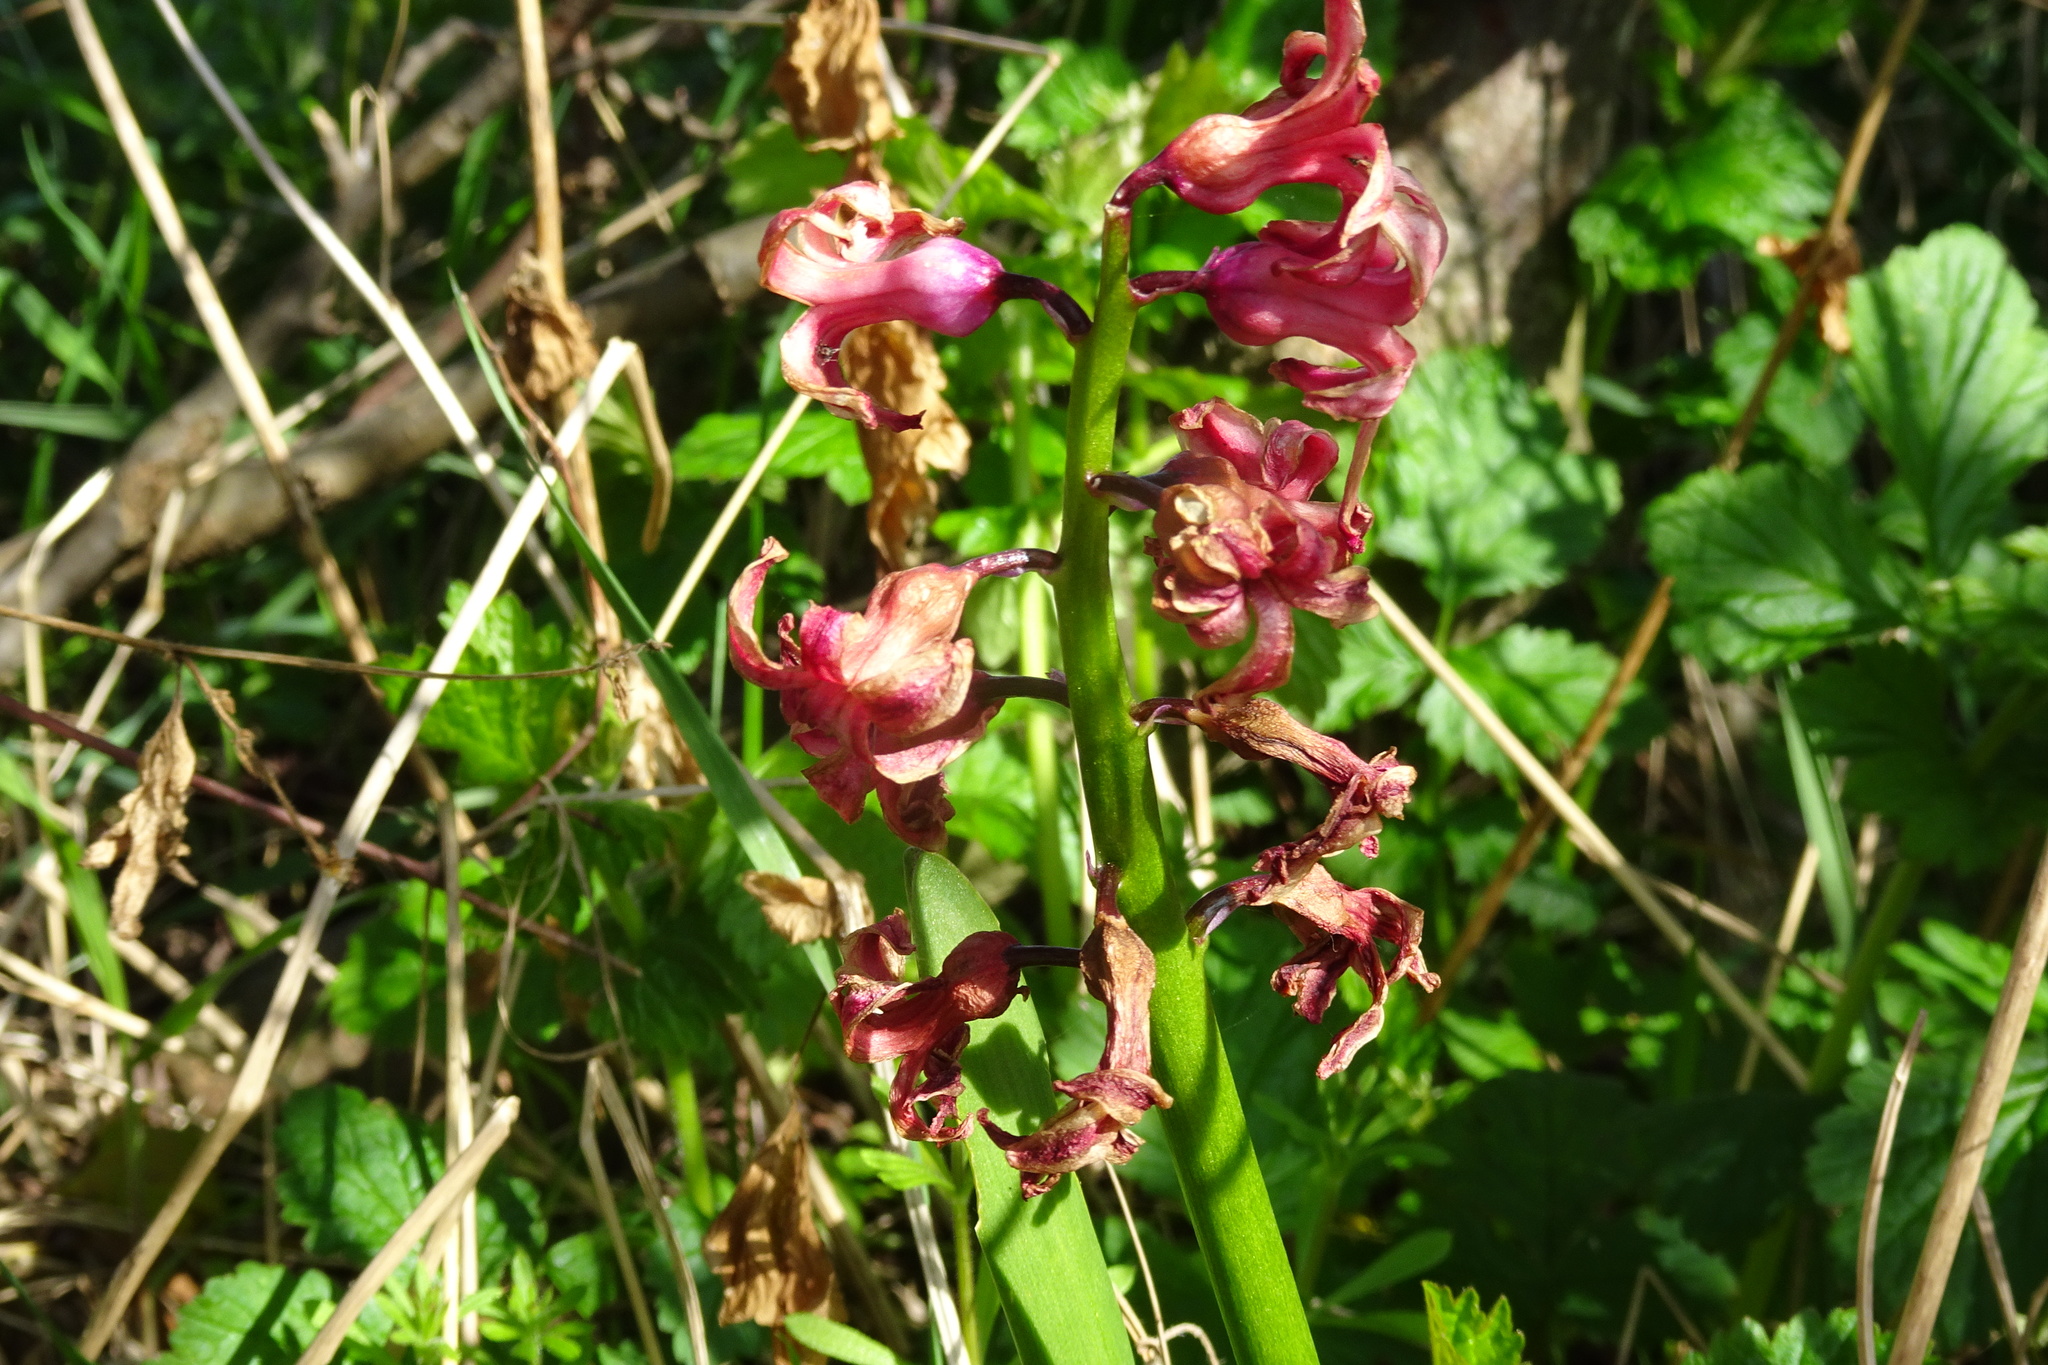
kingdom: Plantae
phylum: Tracheophyta
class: Liliopsida
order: Asparagales
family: Asparagaceae
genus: Hyacinthus
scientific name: Hyacinthus orientalis
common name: Hyacinth
